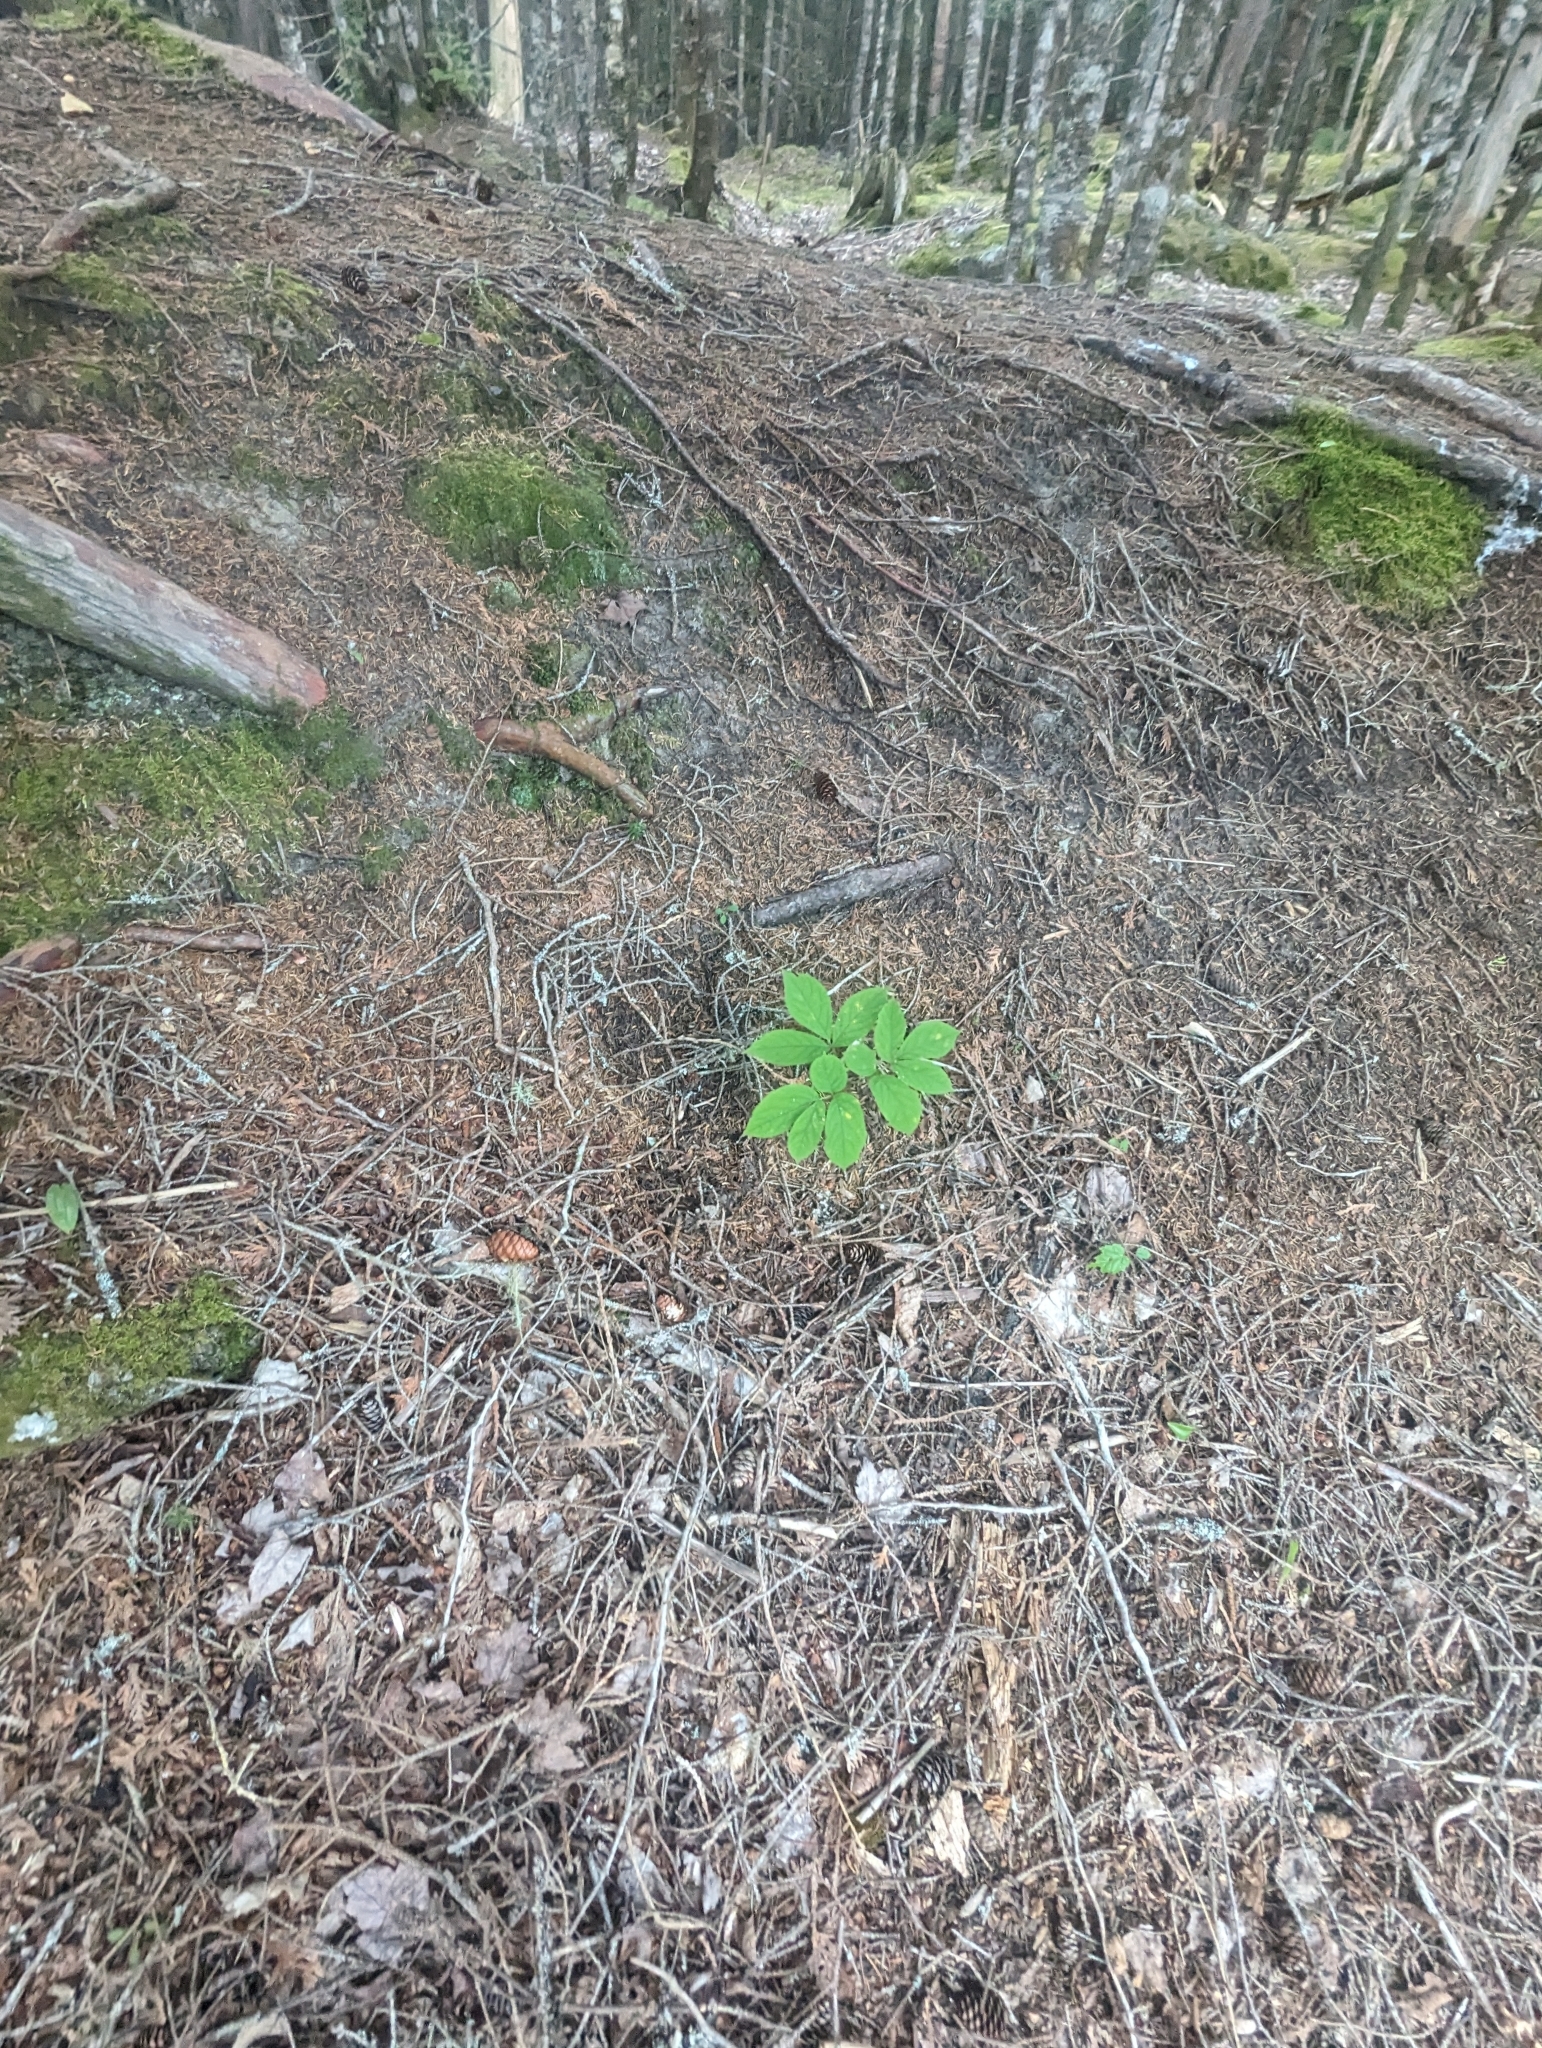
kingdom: Plantae
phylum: Tracheophyta
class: Magnoliopsida
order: Apiales
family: Araliaceae
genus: Aralia
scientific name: Aralia nudicaulis
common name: Wild sarsaparilla
